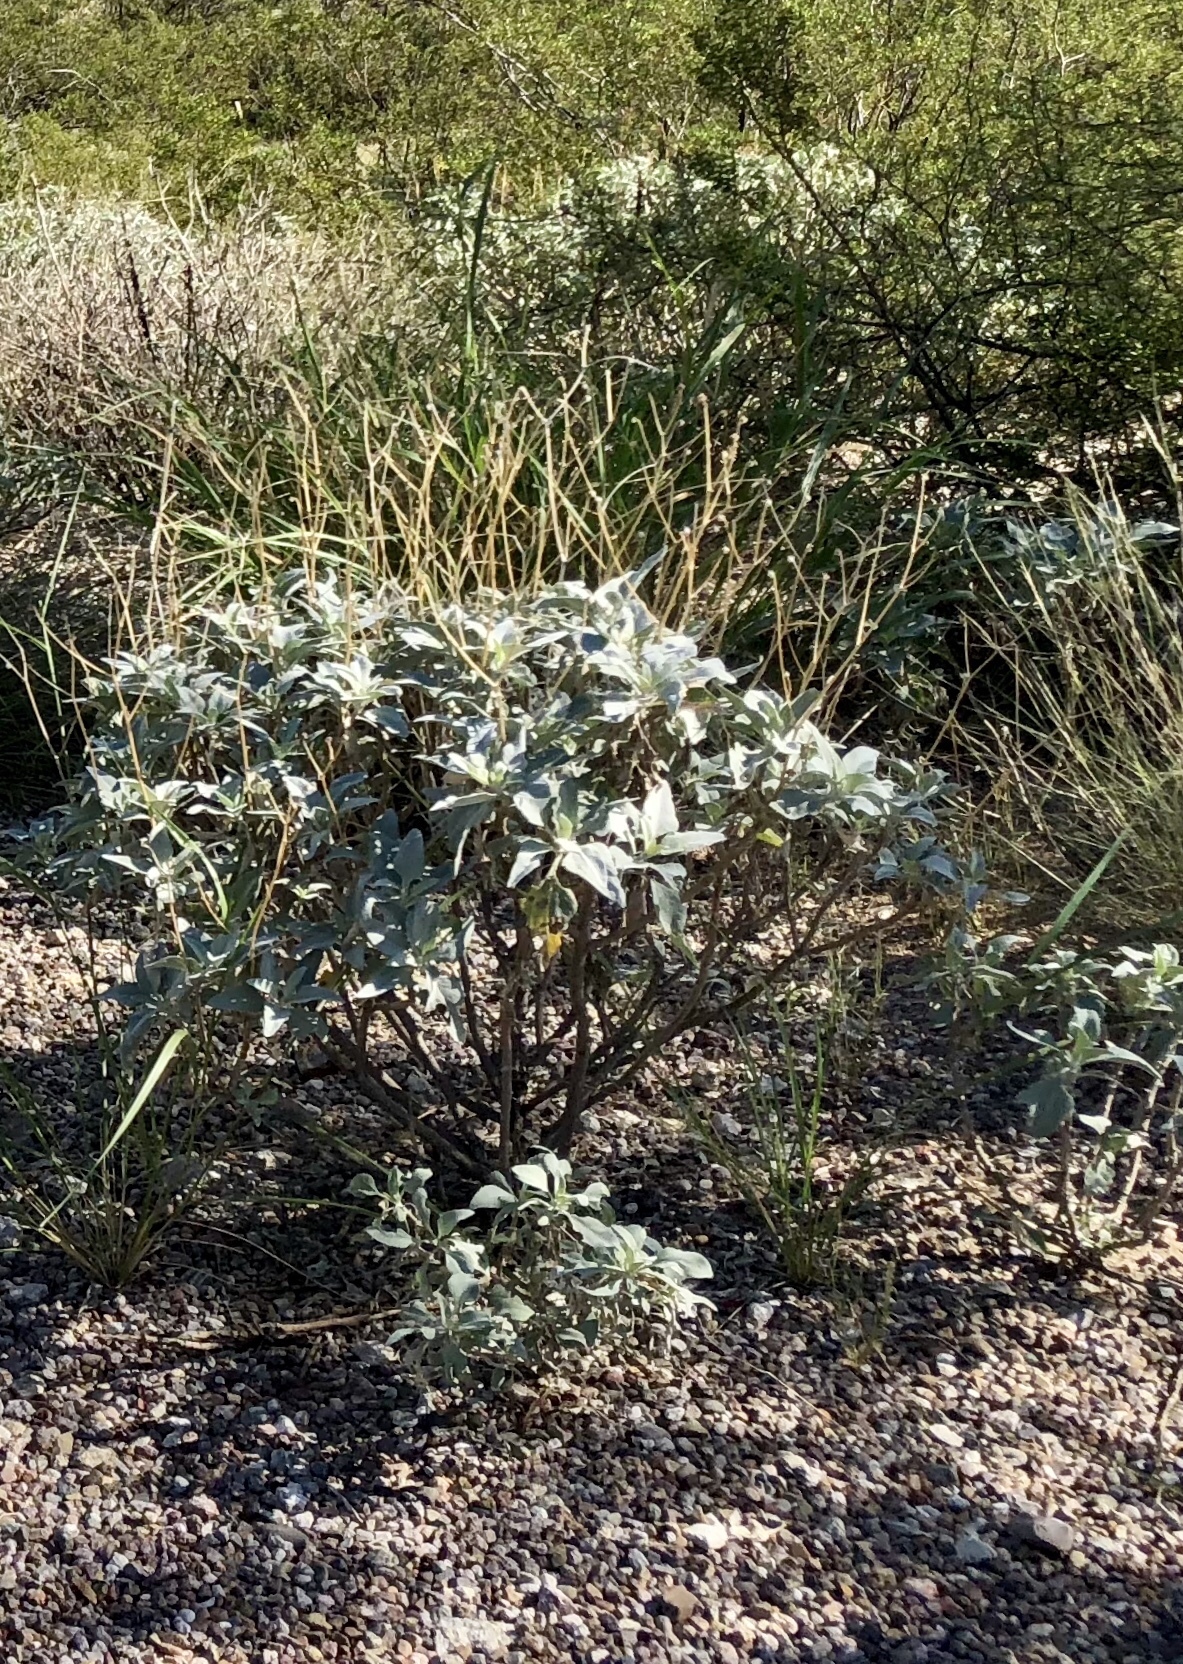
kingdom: Plantae
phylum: Tracheophyta
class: Magnoliopsida
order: Asterales
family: Asteraceae
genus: Encelia
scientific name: Encelia farinosa
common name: Brittlebush
